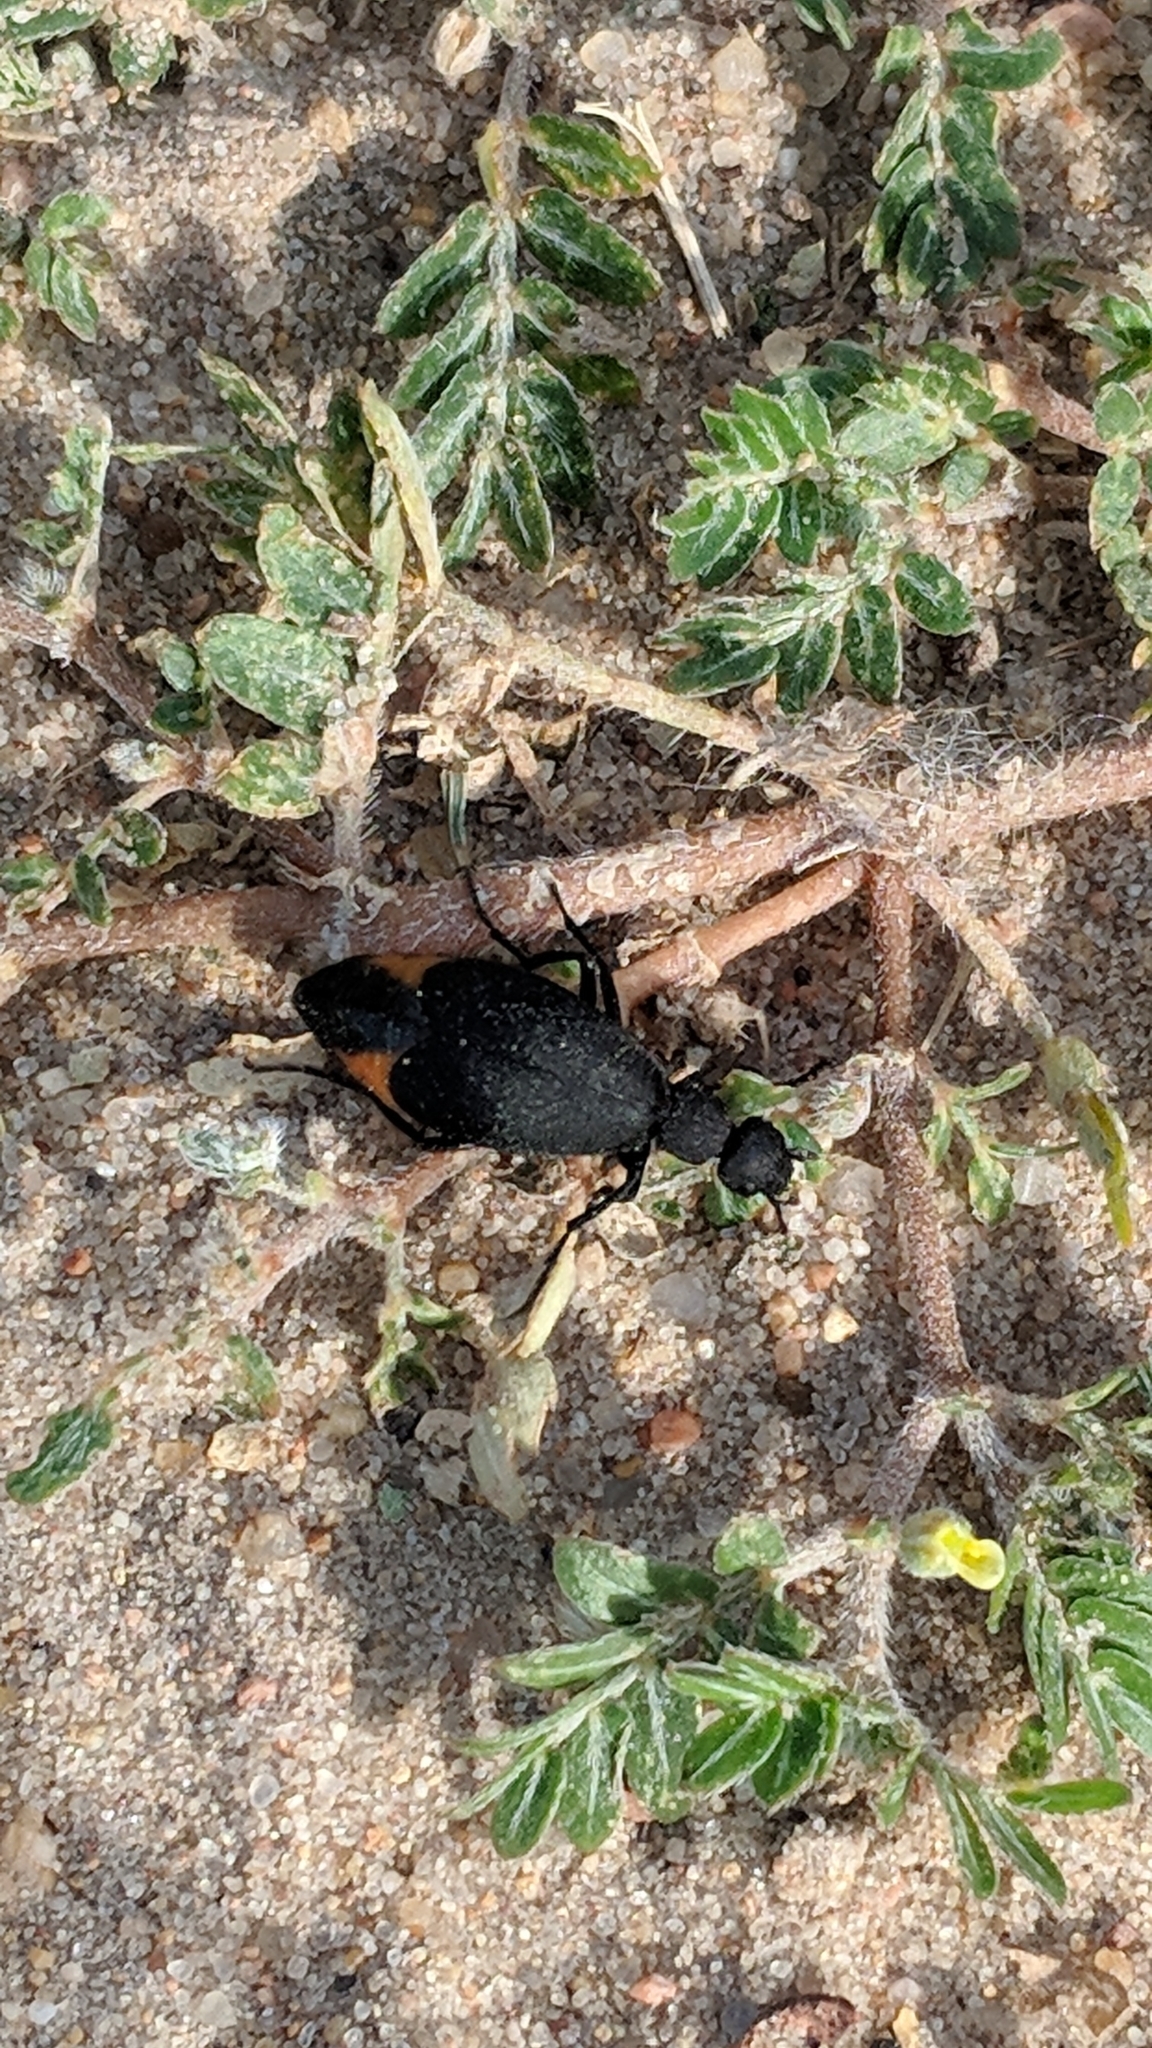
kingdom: Animalia
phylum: Arthropoda
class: Insecta
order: Coleoptera
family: Meloidae
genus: Epicauta
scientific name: Epicauta conferta
